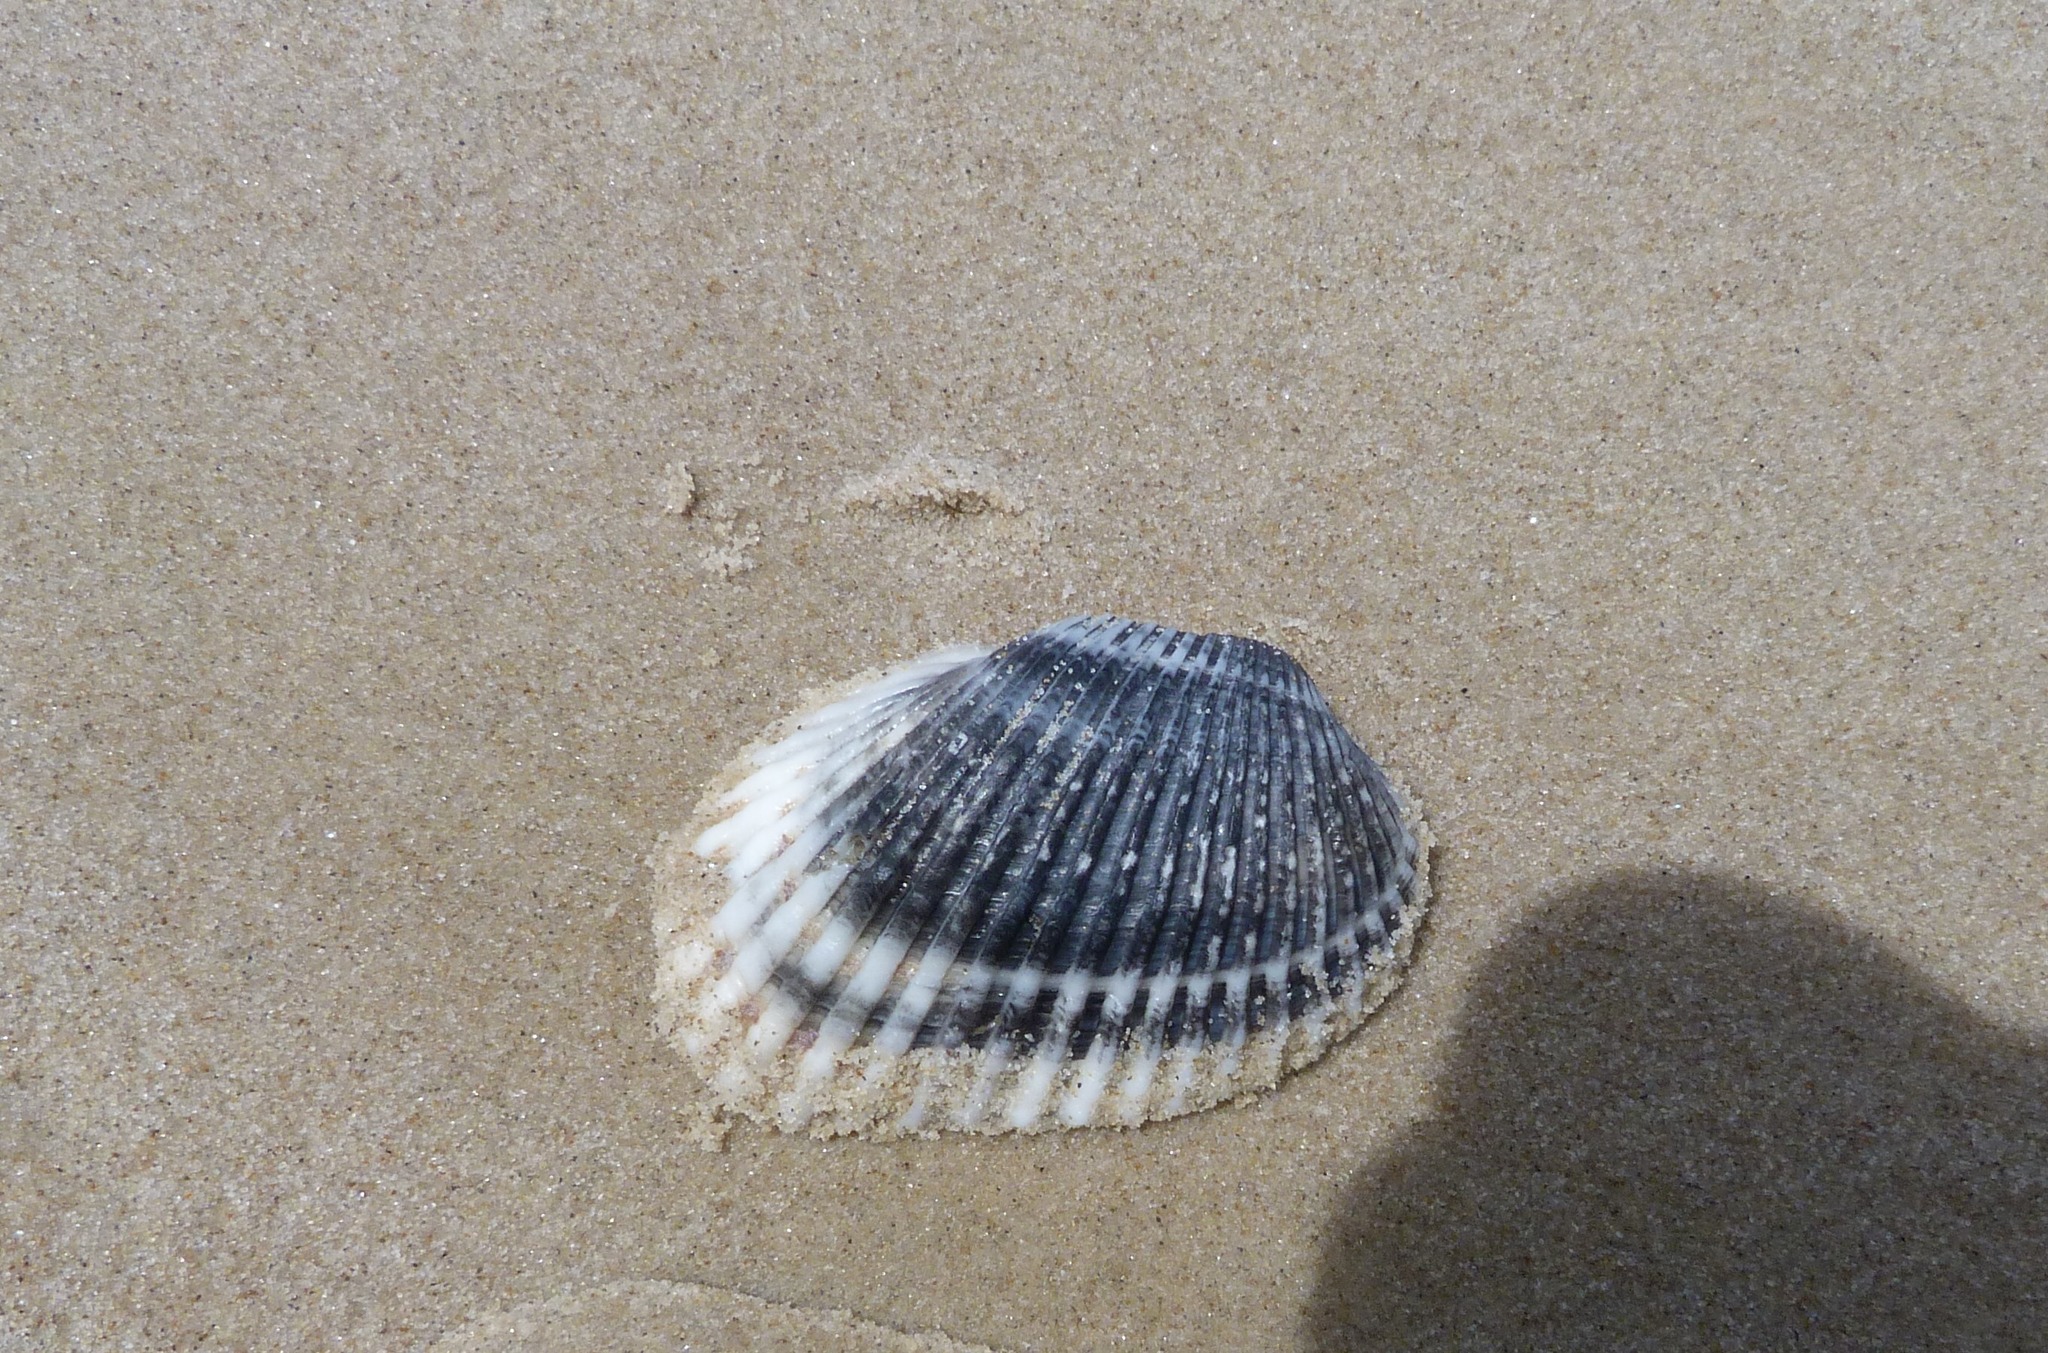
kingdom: Animalia
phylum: Mollusca
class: Bivalvia
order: Arcida
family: Arcidae
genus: Anadara
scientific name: Anadara trapezia
